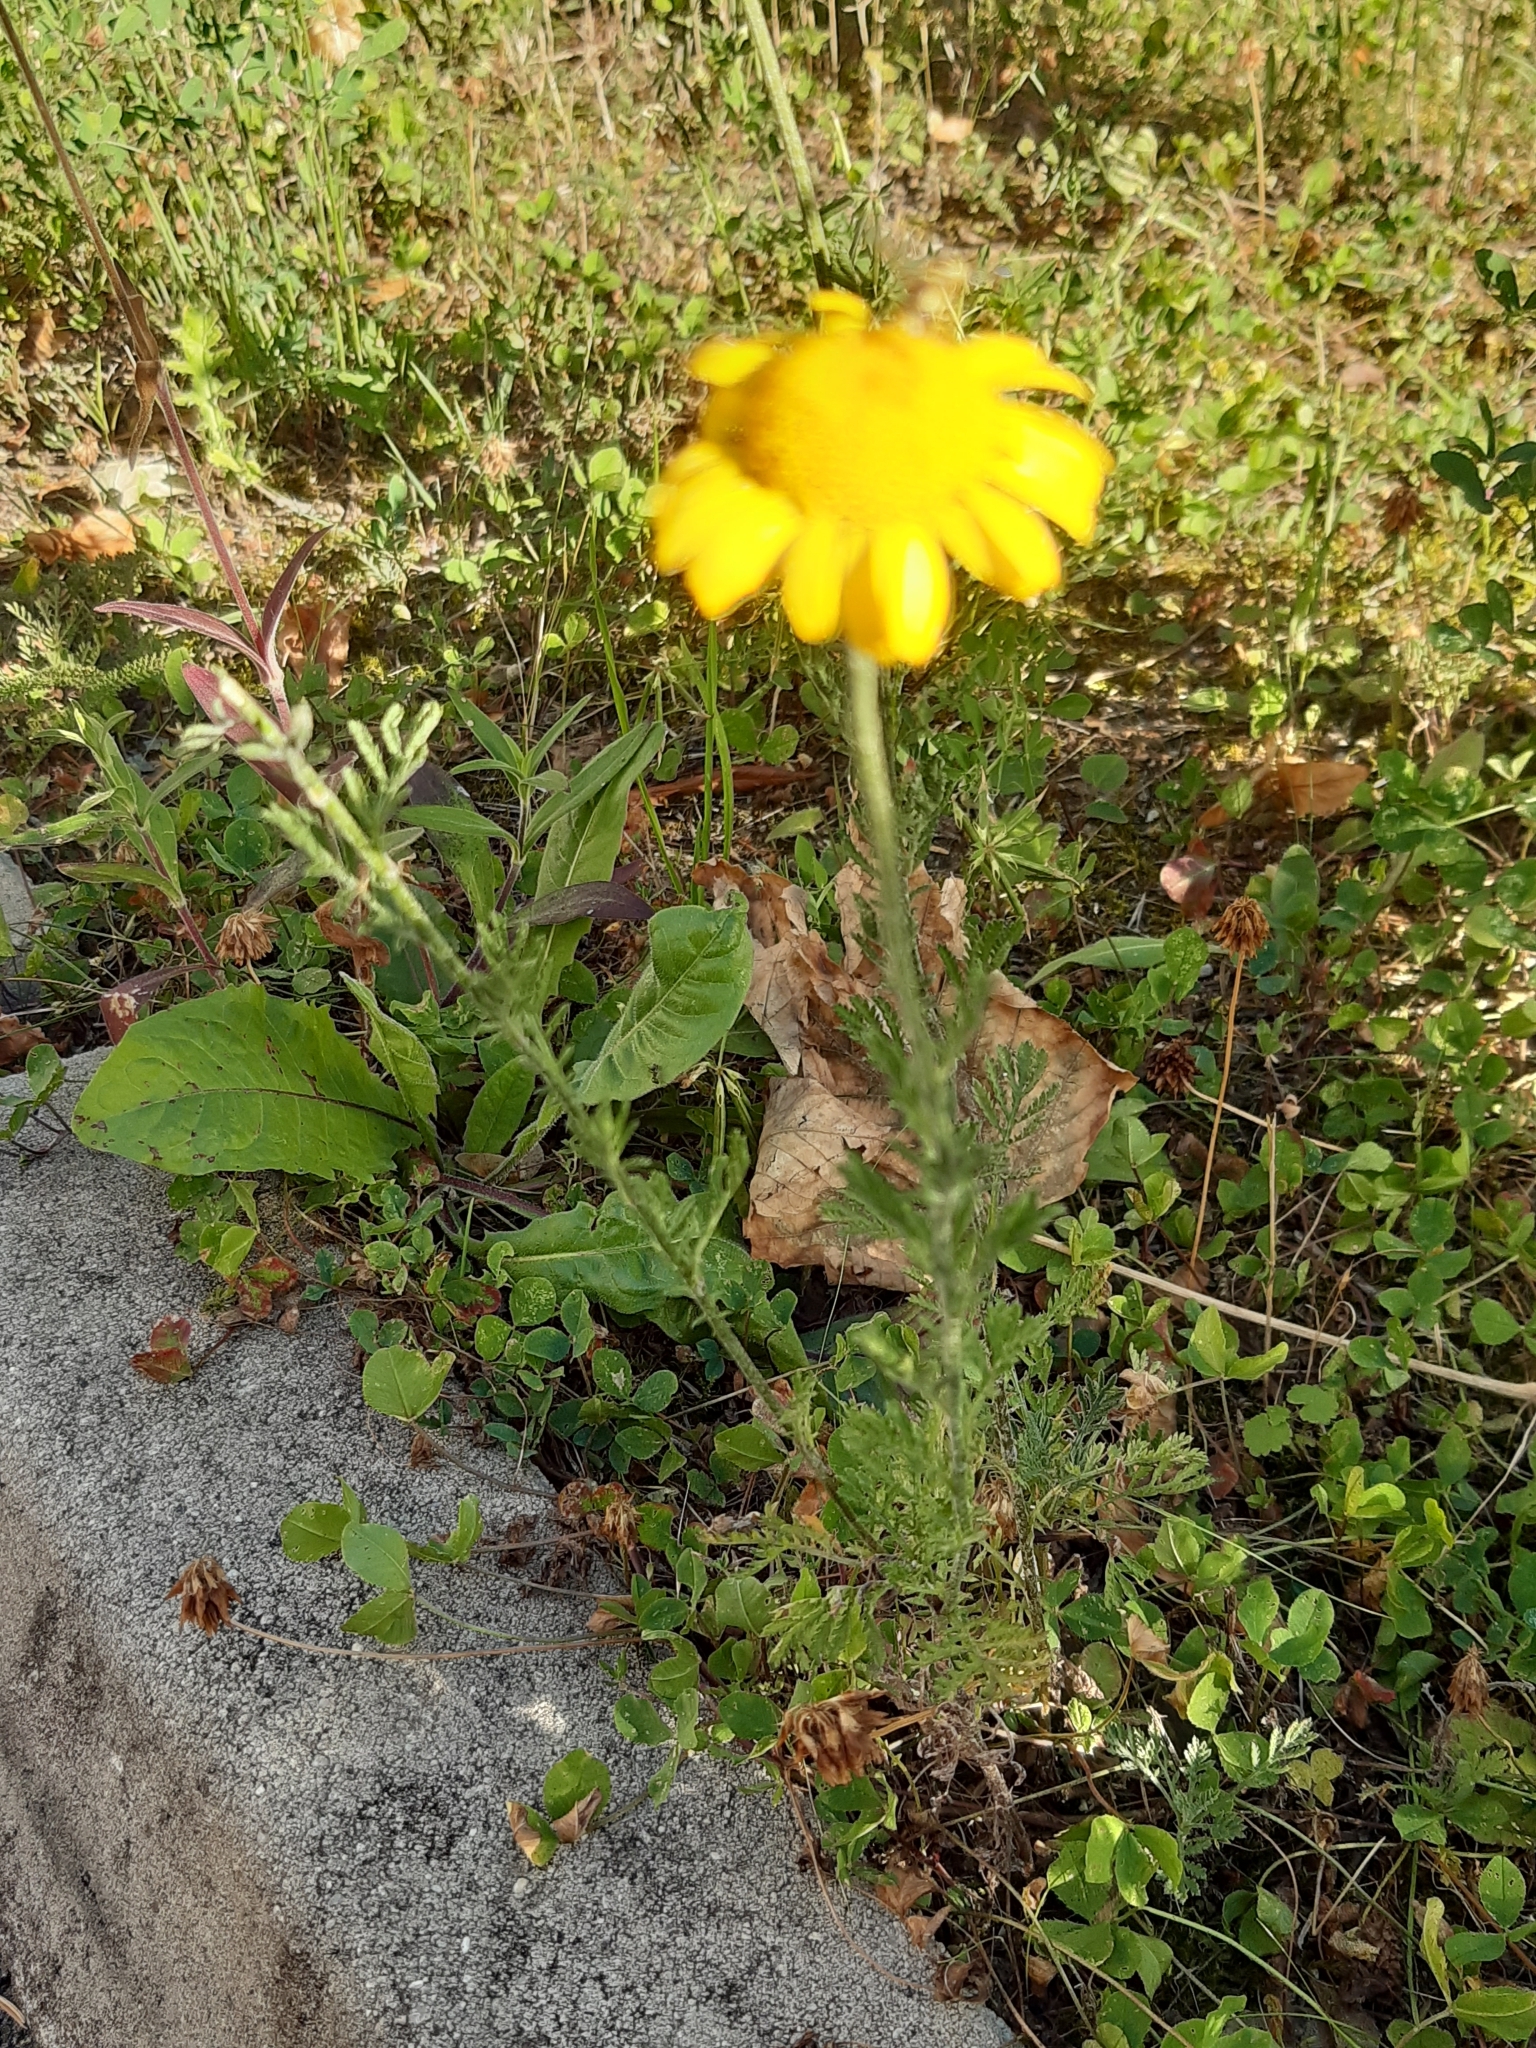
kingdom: Plantae
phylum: Tracheophyta
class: Magnoliopsida
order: Asterales
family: Asteraceae
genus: Cota
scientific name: Cota tinctoria
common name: Golden chamomile
